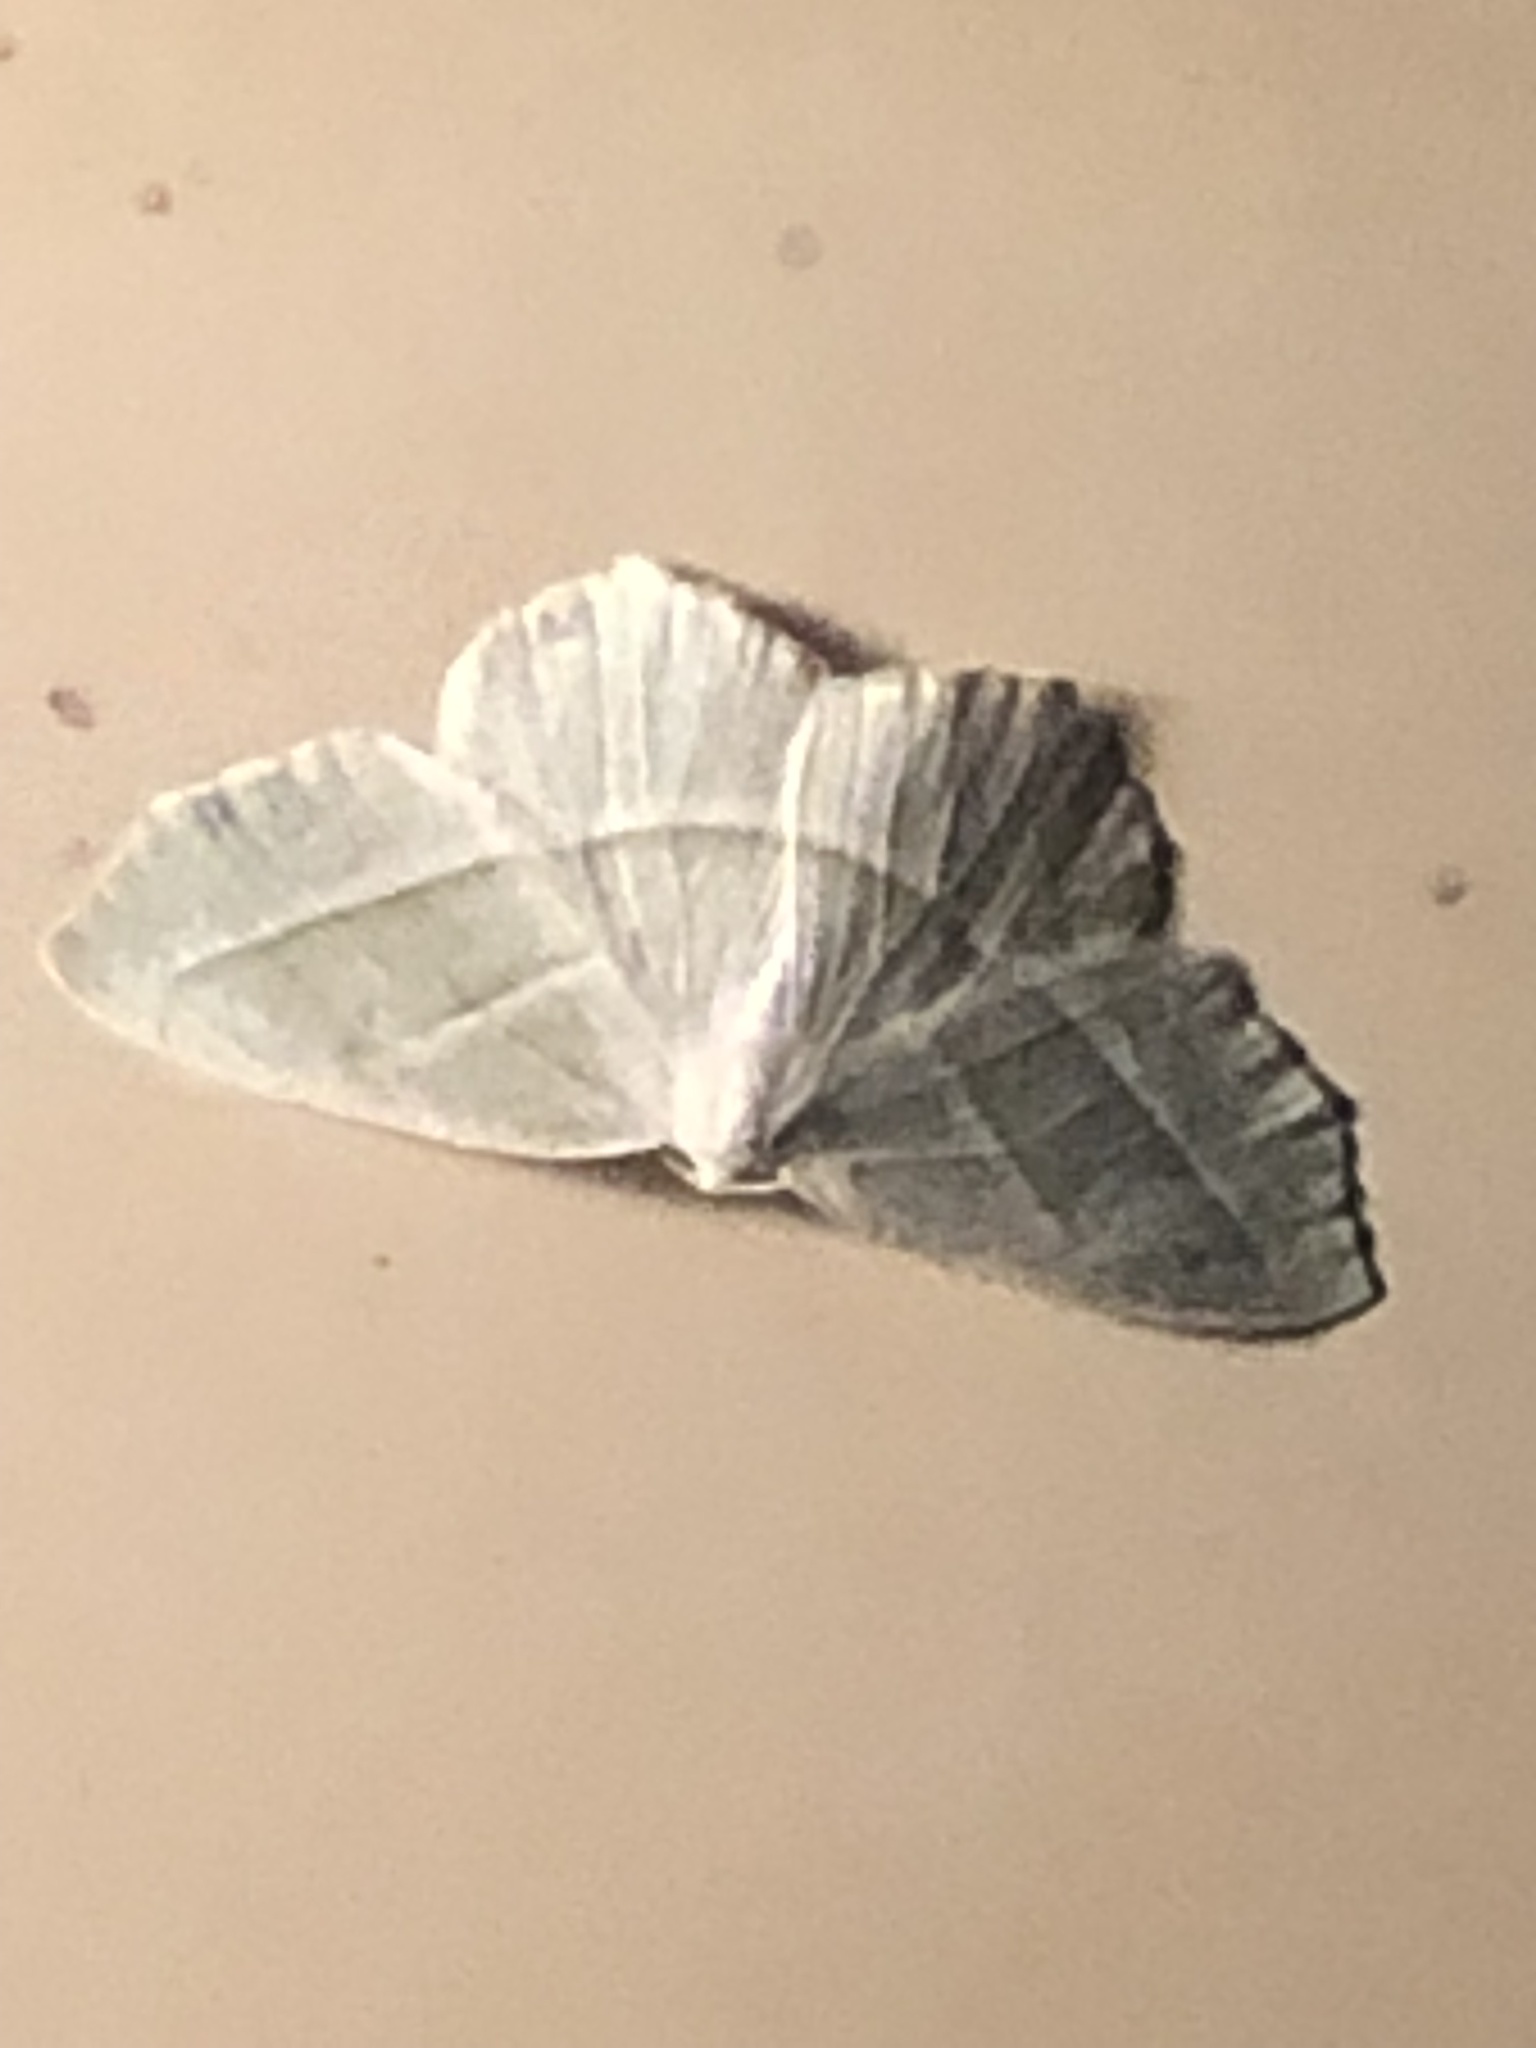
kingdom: Animalia
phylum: Arthropoda
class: Insecta
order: Lepidoptera
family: Geometridae
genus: Campaea
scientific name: Campaea perlata
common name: Fringed looper
